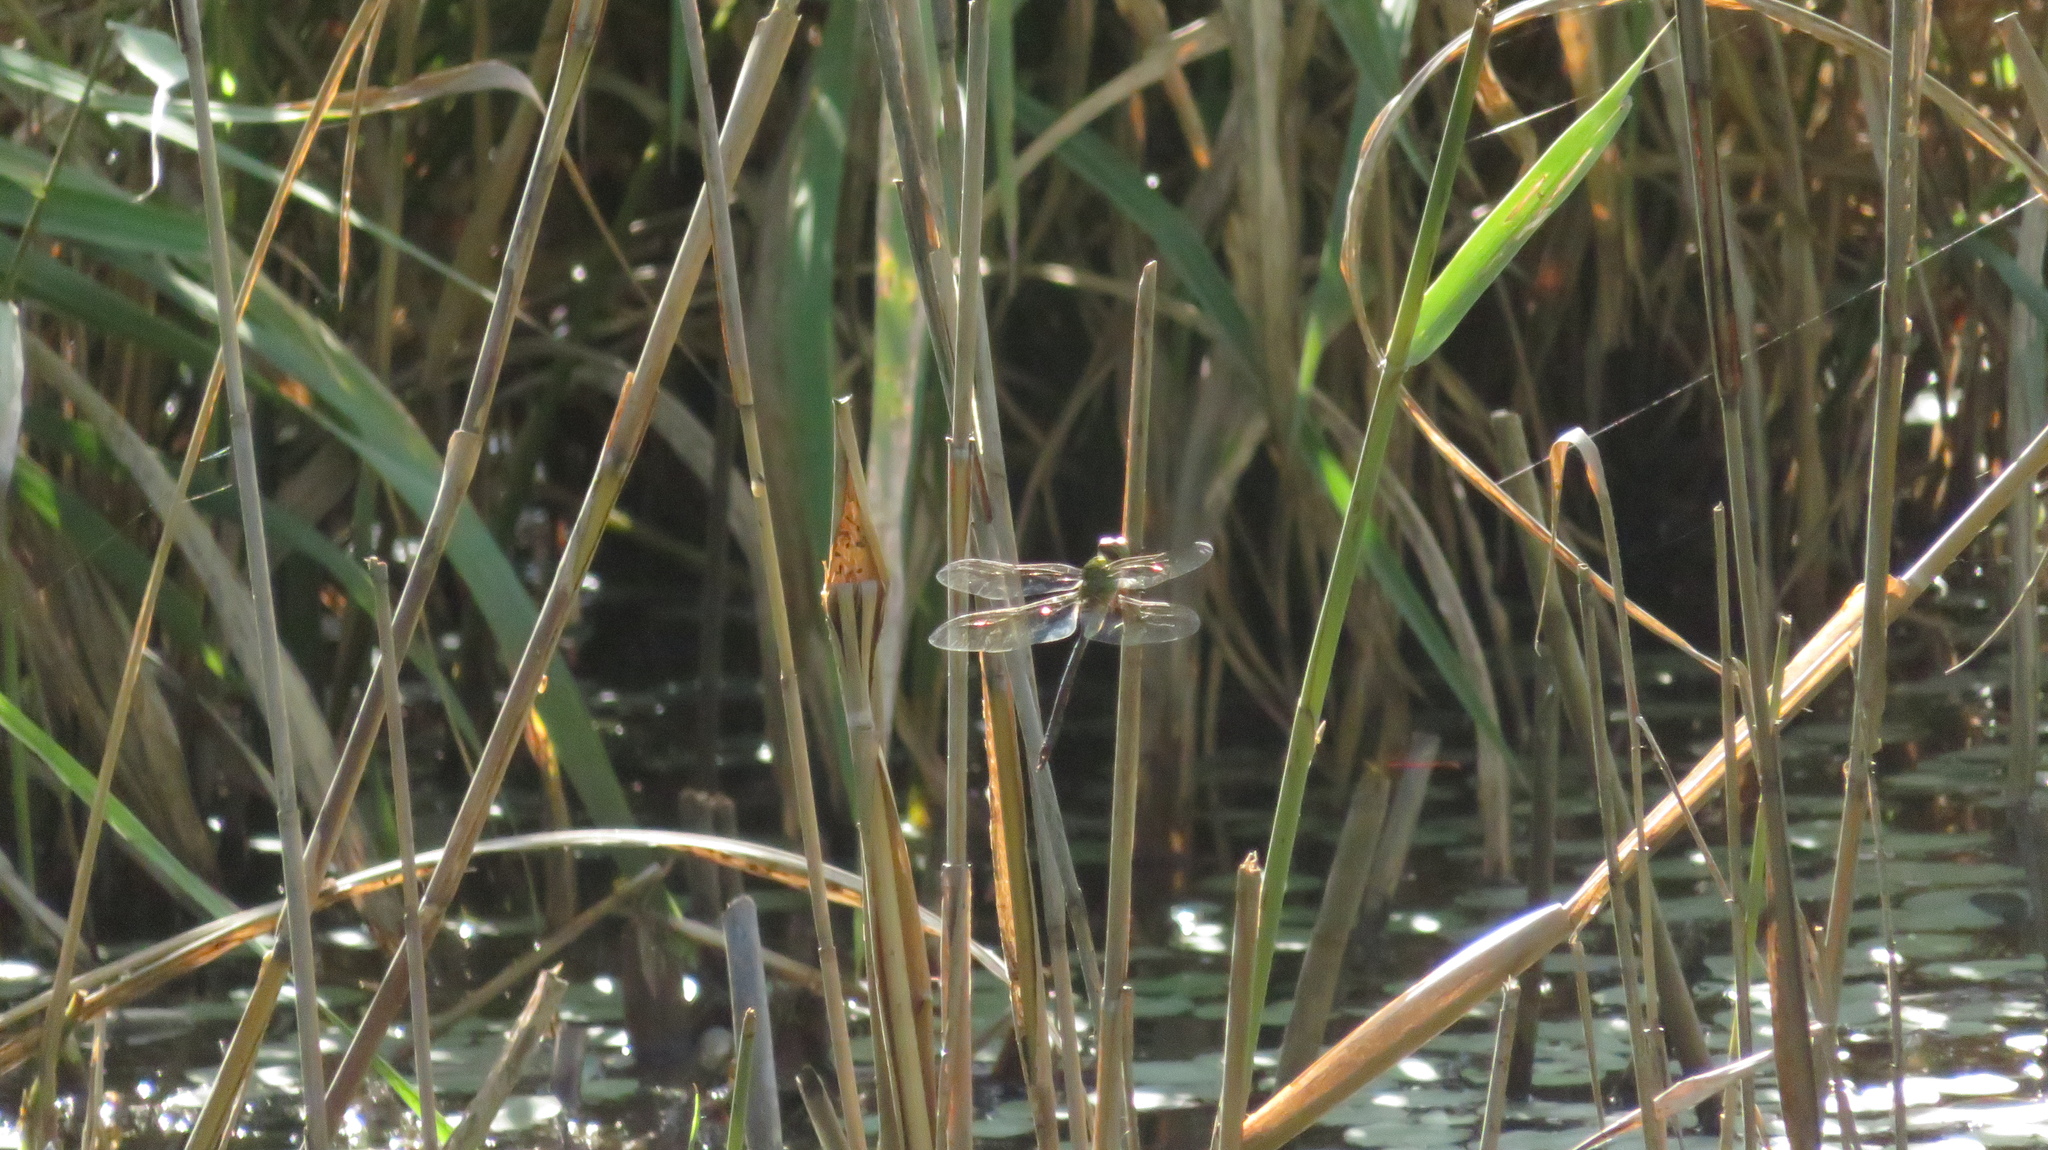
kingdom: Animalia
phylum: Arthropoda
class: Insecta
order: Odonata
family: Aeshnidae
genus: Anax
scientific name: Anax julius
